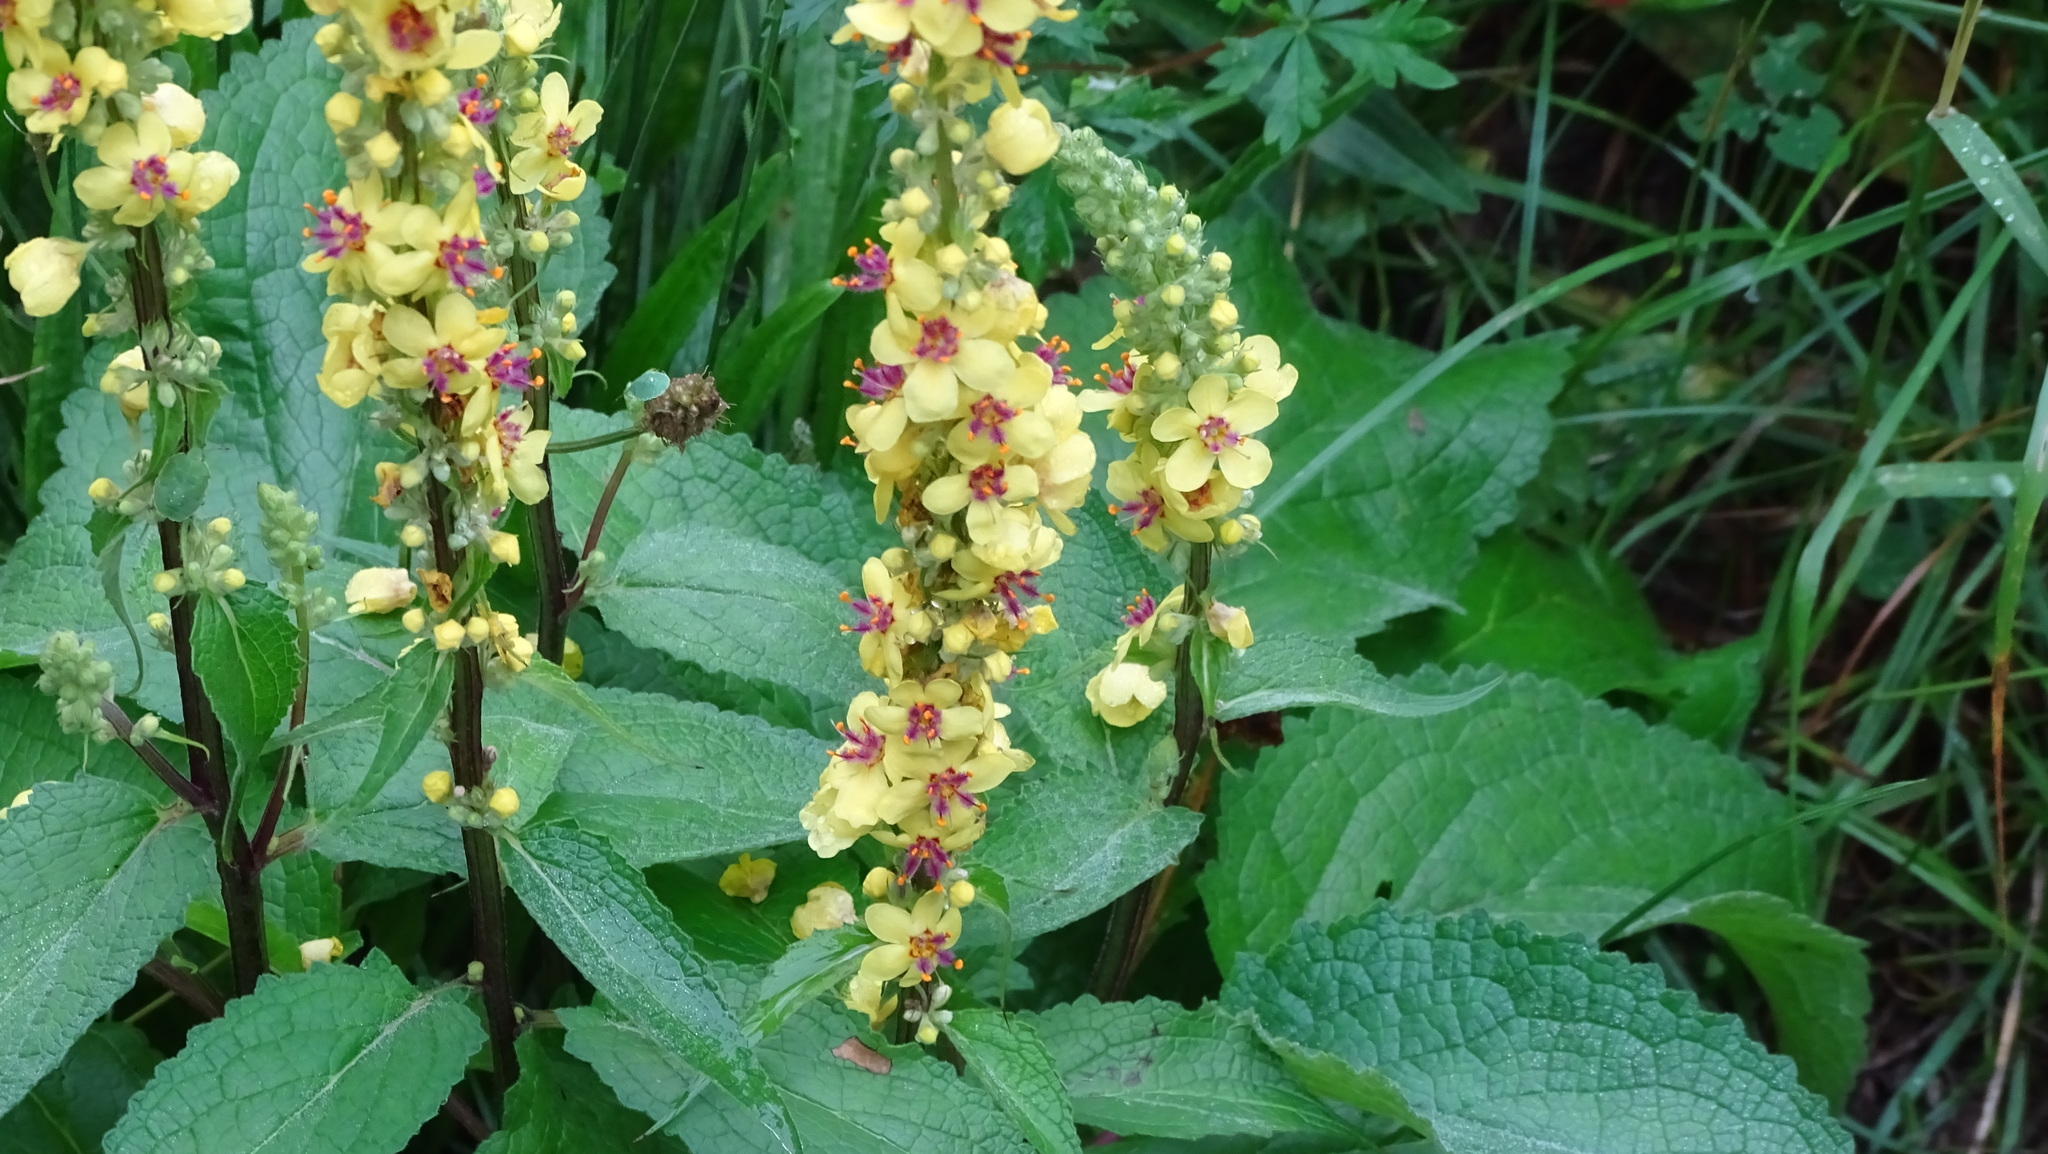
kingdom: Plantae
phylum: Tracheophyta
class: Magnoliopsida
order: Lamiales
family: Scrophulariaceae
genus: Verbascum
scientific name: Verbascum nigrum
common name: Dark mullein
